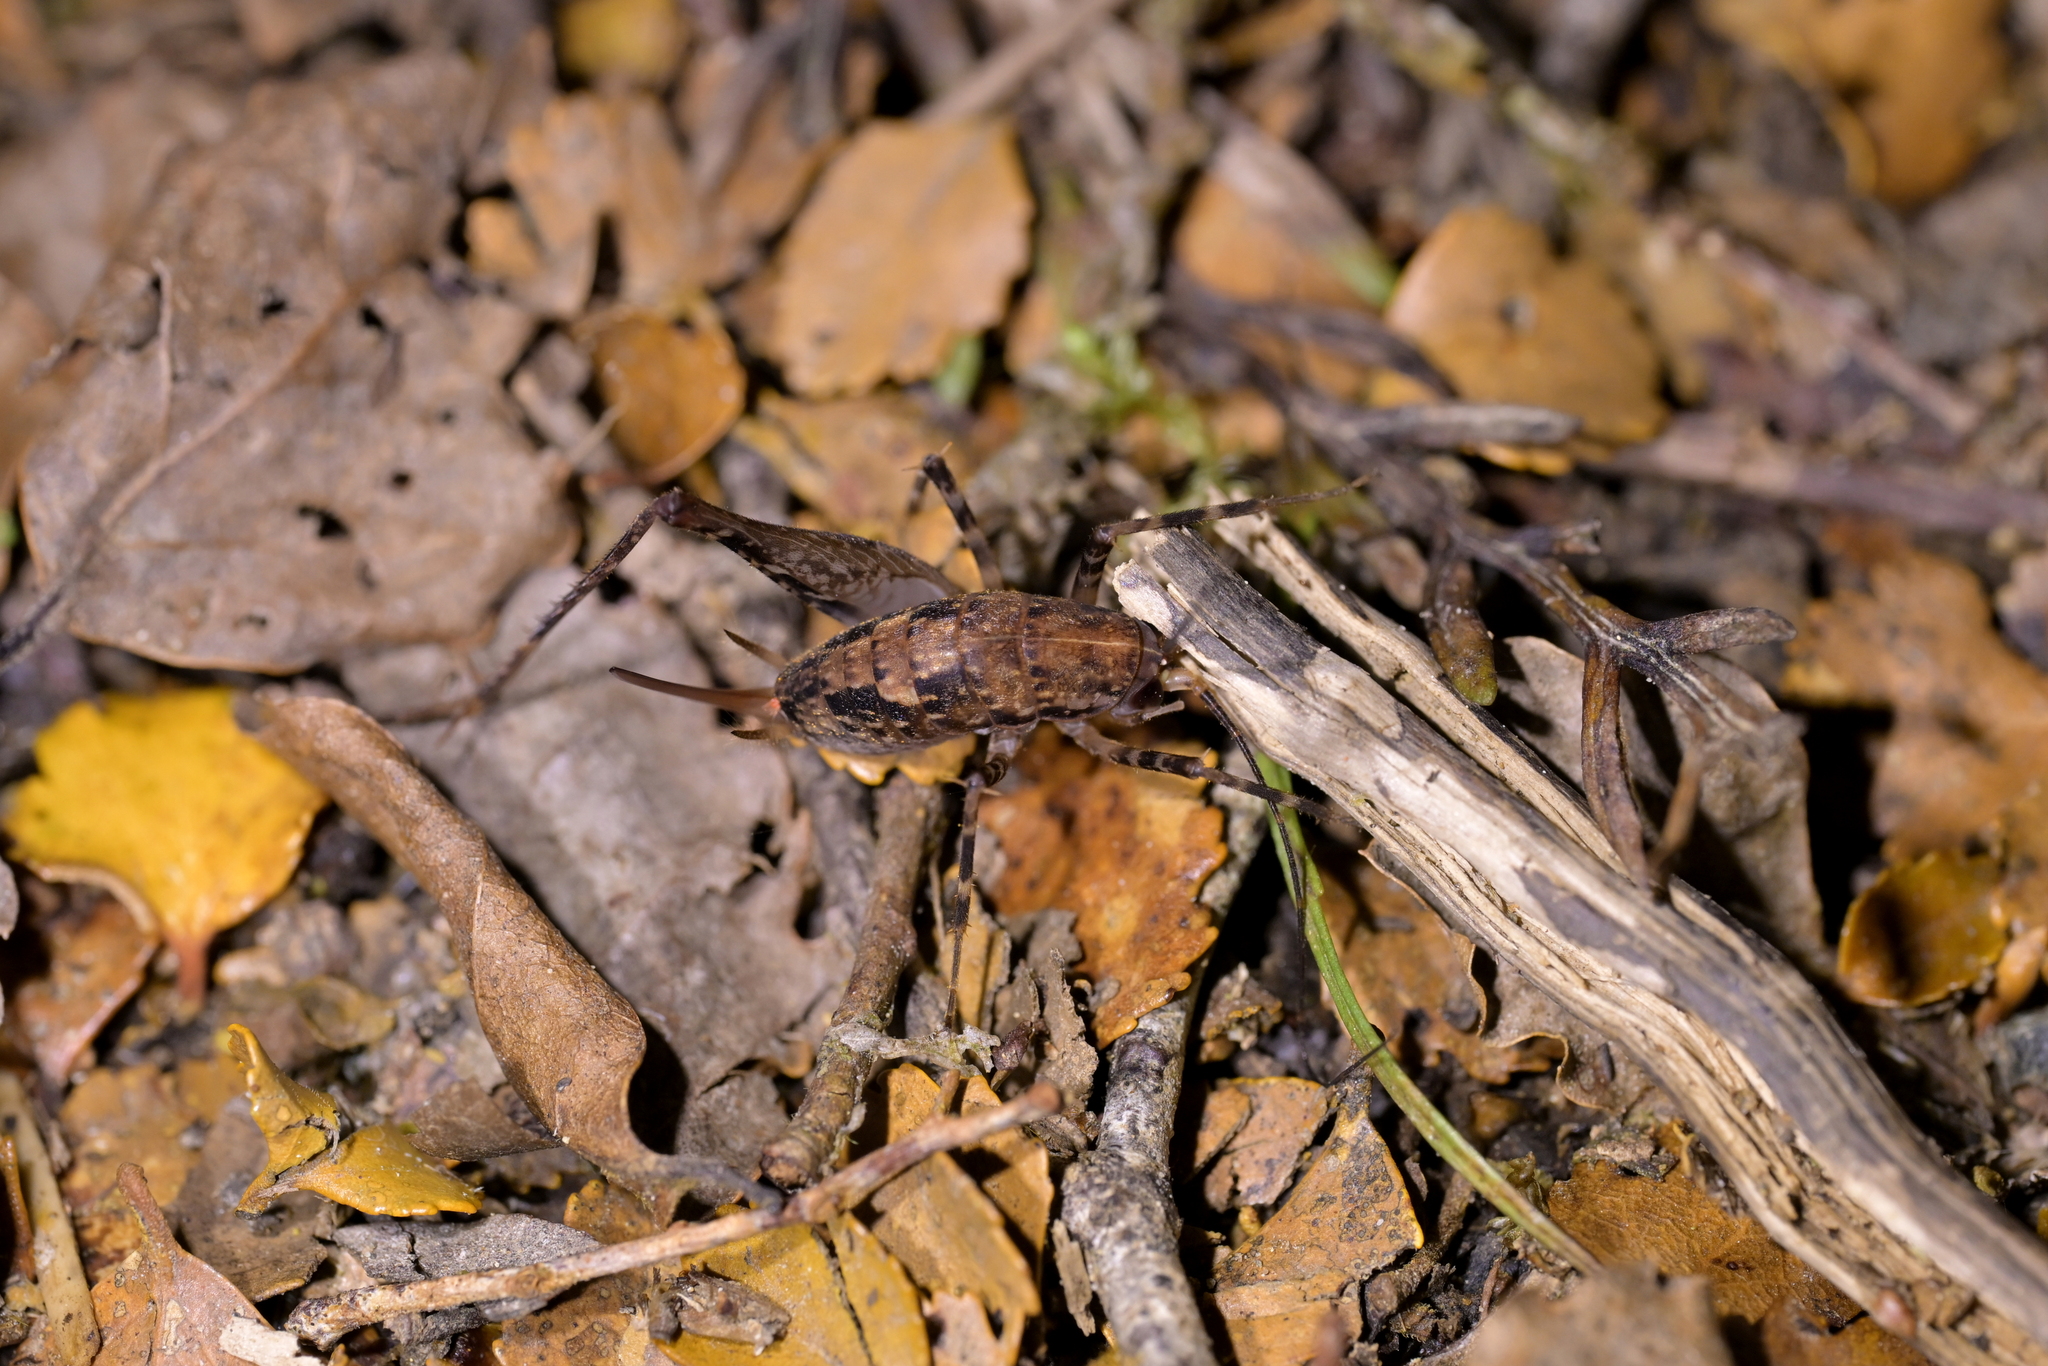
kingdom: Animalia
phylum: Arthropoda
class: Insecta
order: Orthoptera
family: Rhaphidophoridae
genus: Pleioplectron
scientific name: Pleioplectron hudsoni
